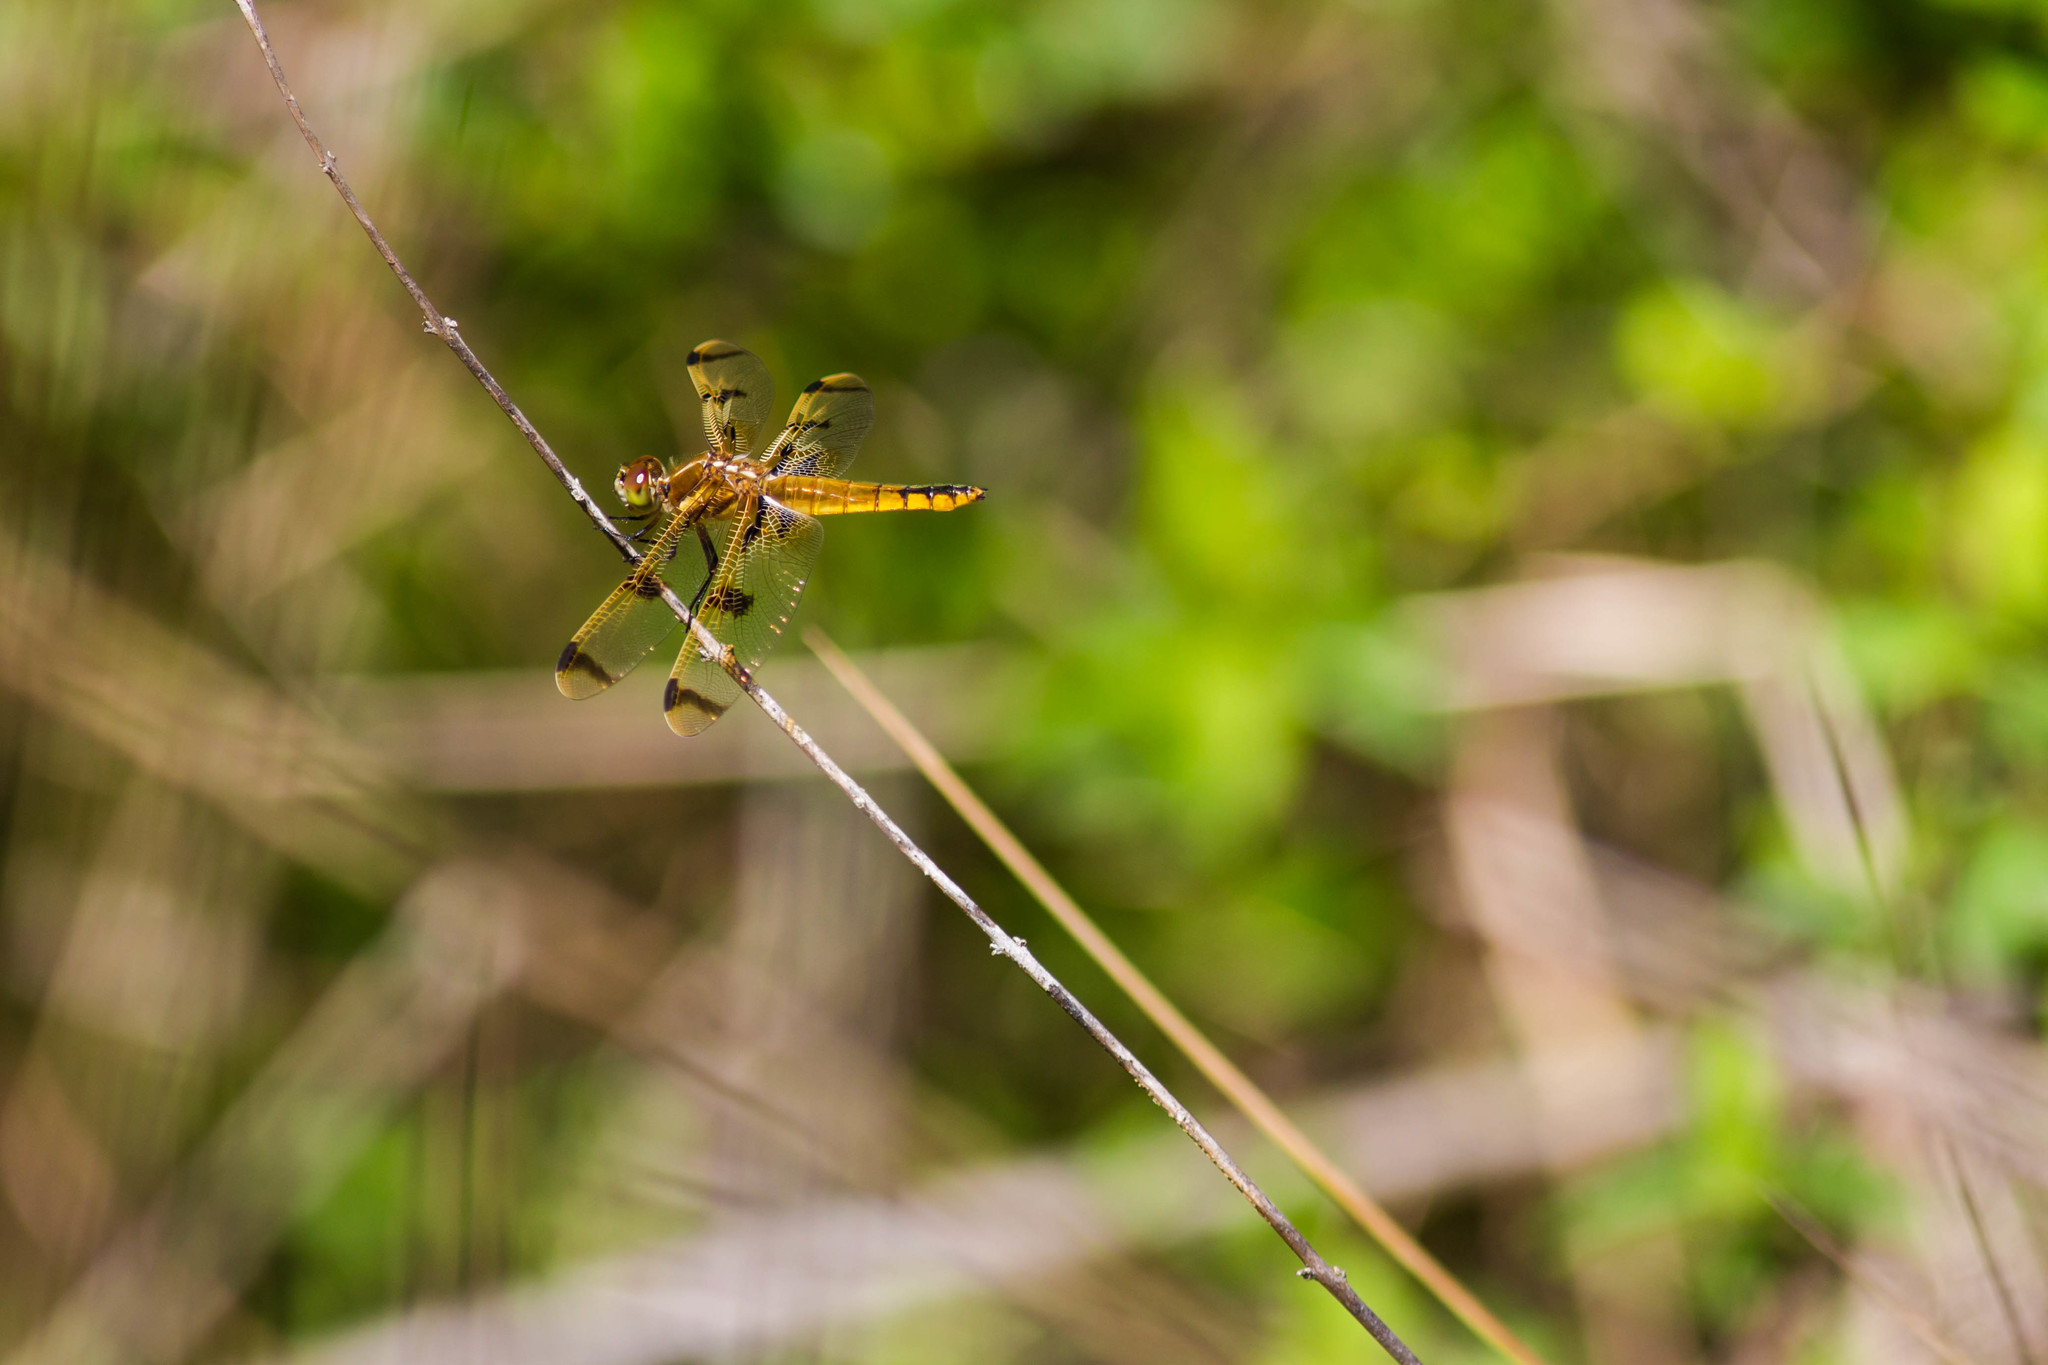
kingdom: Animalia
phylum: Arthropoda
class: Insecta
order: Odonata
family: Libellulidae
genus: Libellula
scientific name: Libellula semifasciata
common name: Painted skimmer
